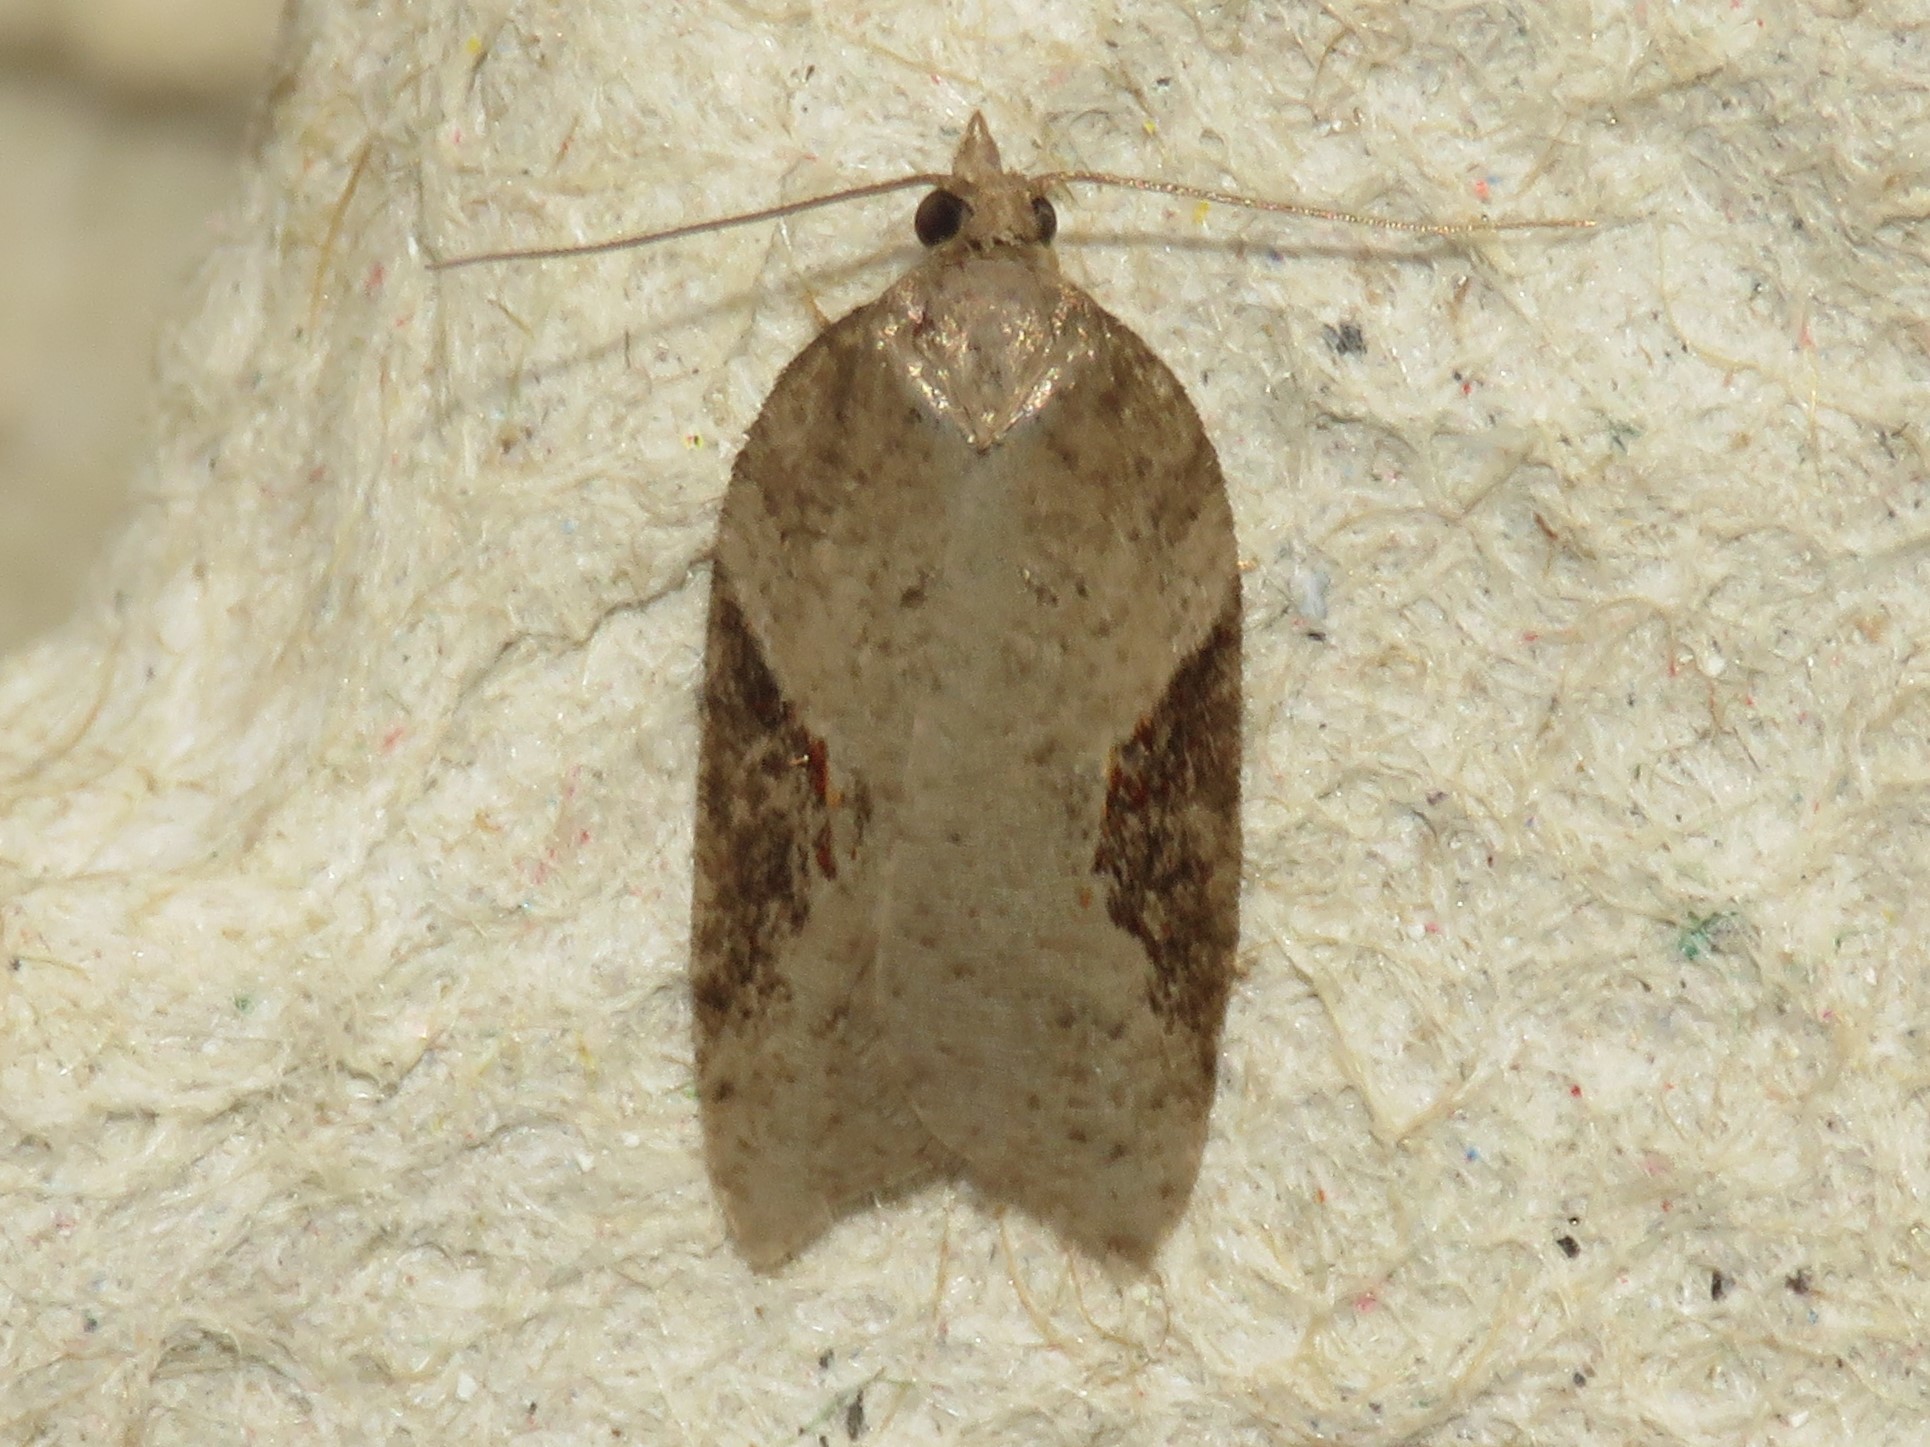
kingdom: Animalia
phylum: Arthropoda
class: Insecta
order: Lepidoptera
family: Tortricidae
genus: Acleris
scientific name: Acleris macdunnoughi
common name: Macdunnough's acleris
